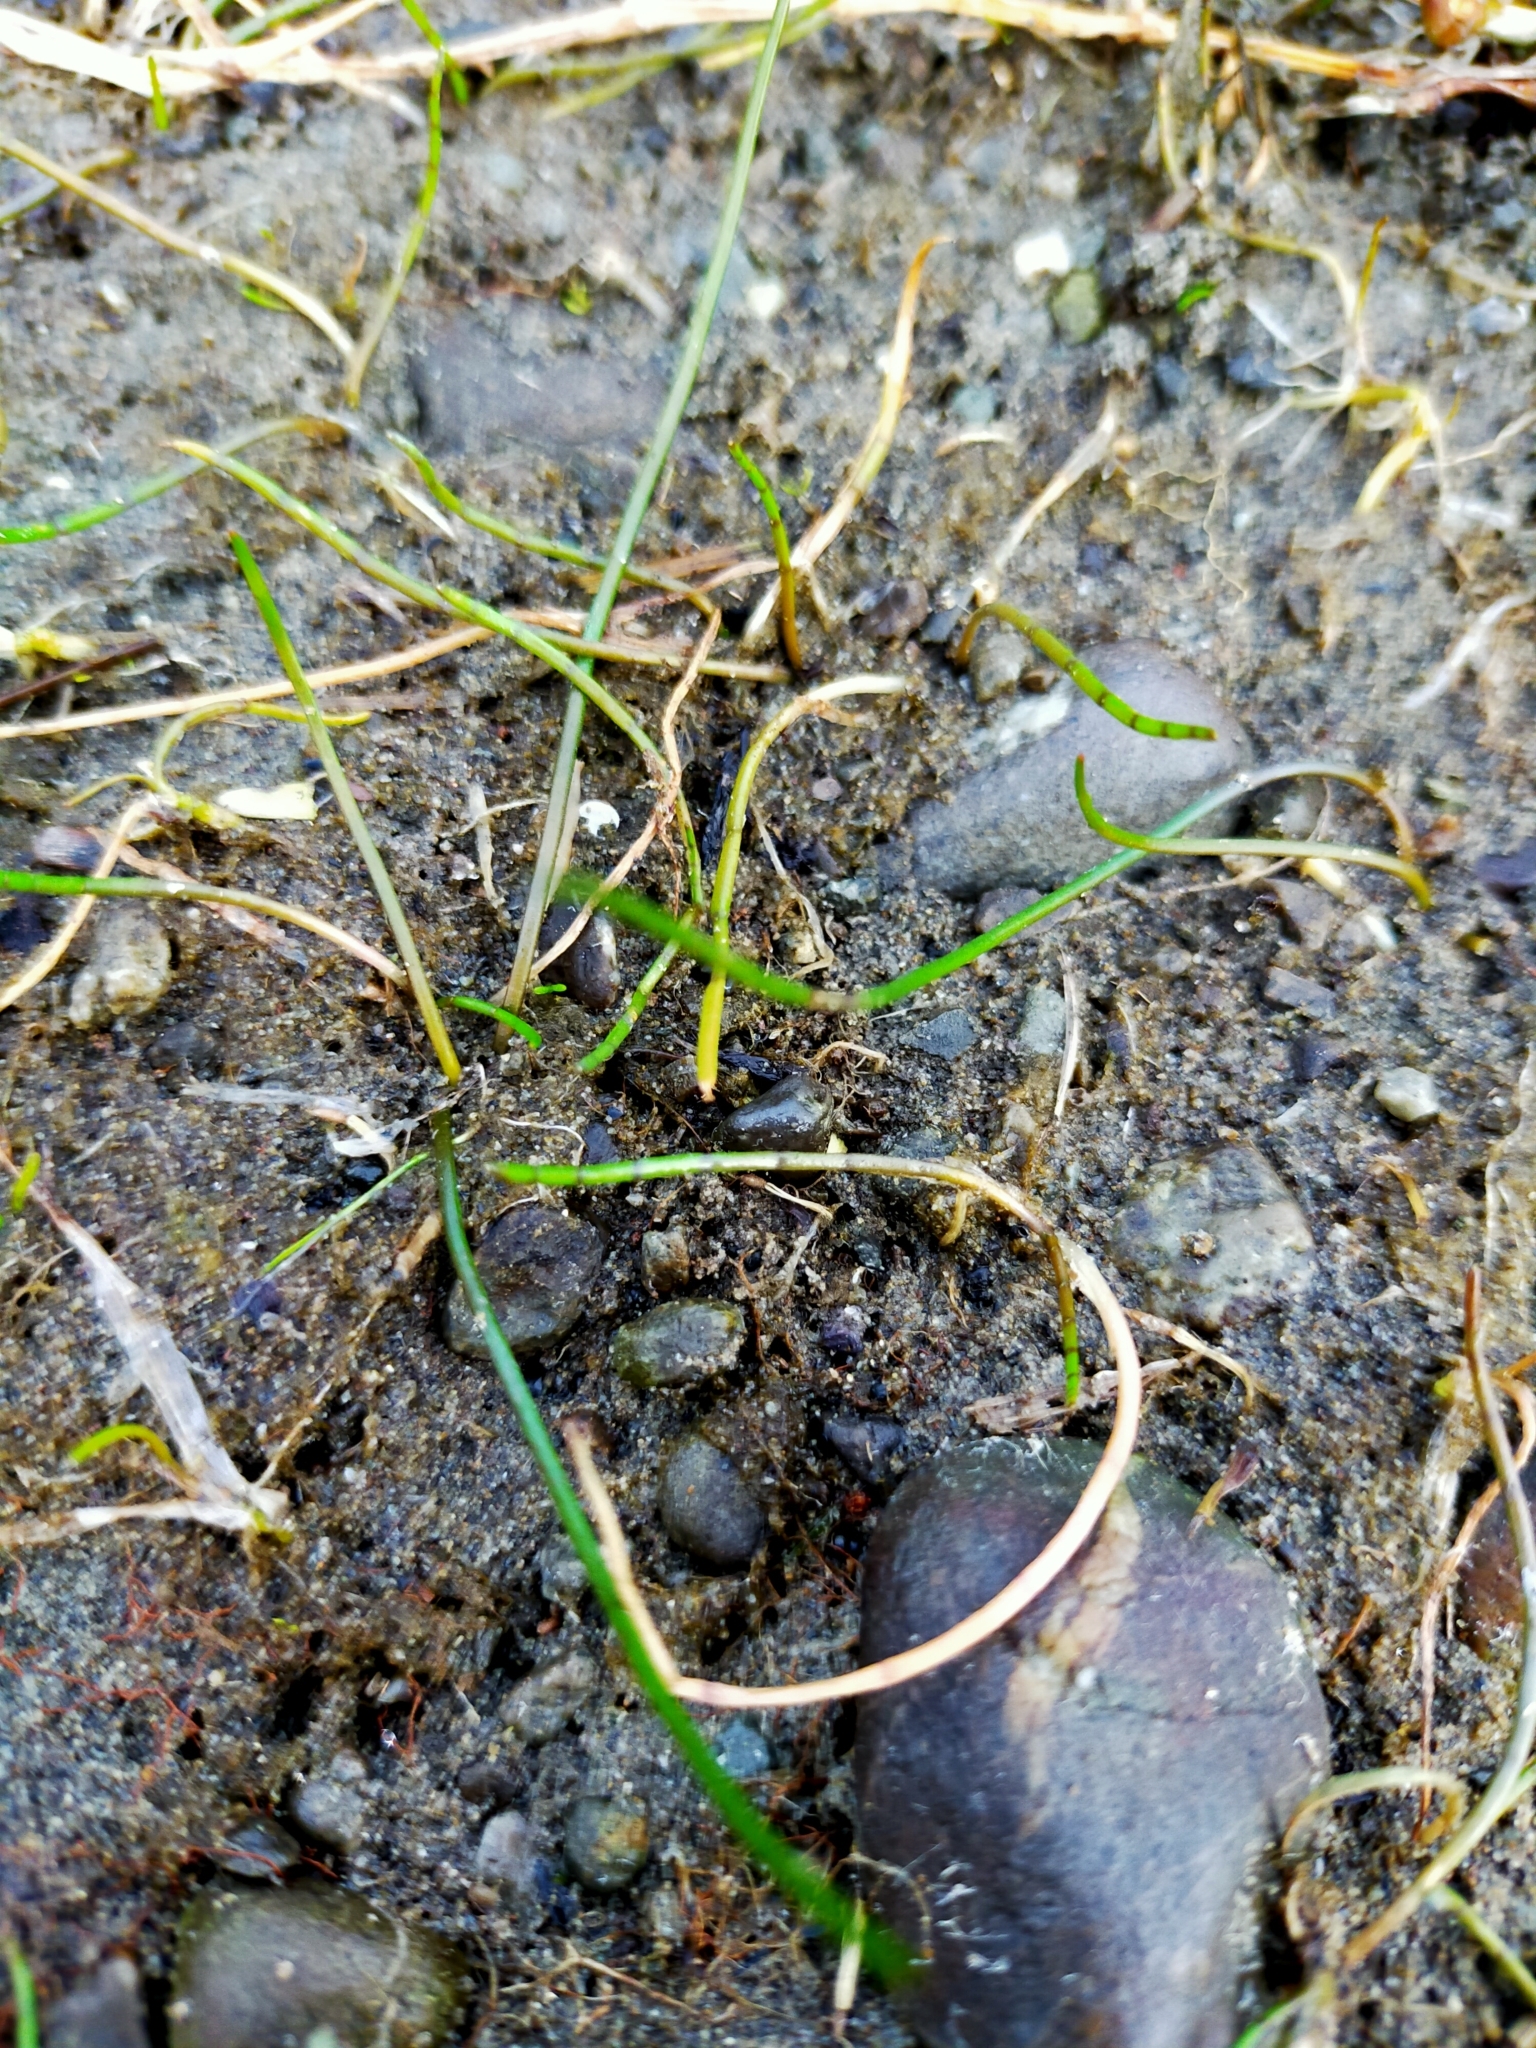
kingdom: Plantae
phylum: Tracheophyta
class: Magnoliopsida
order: Apiales
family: Apiaceae
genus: Lilaeopsis
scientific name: Lilaeopsis novae-zelandiae
